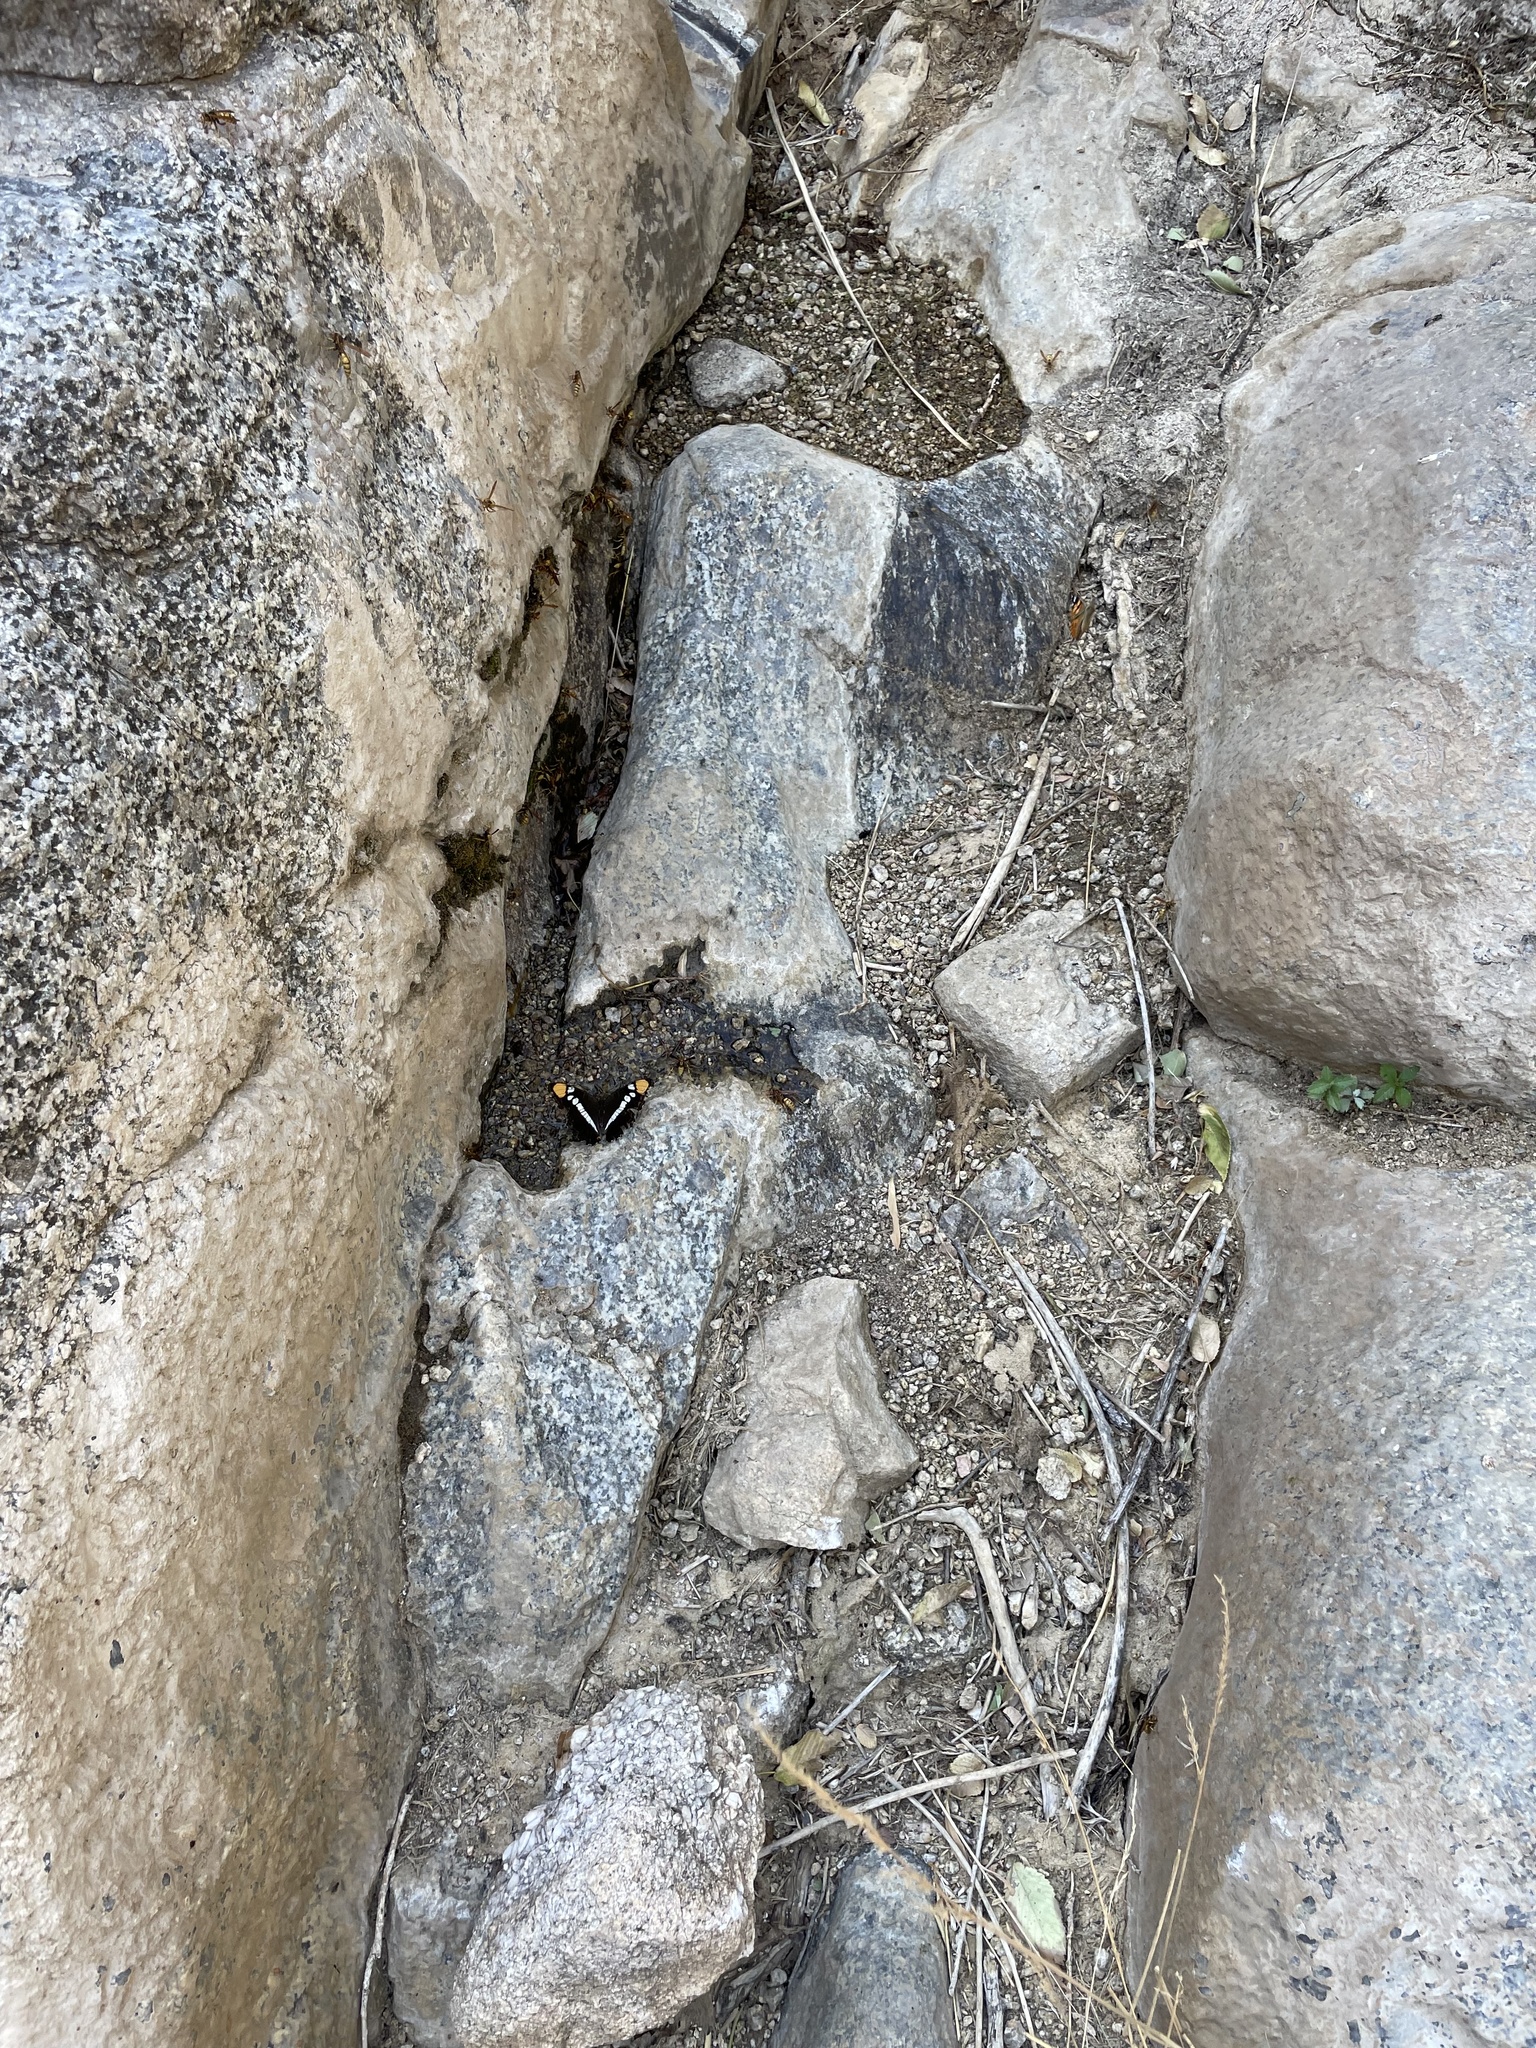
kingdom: Animalia
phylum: Arthropoda
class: Insecta
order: Lepidoptera
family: Nymphalidae
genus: Limenitis
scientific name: Limenitis bredowii
